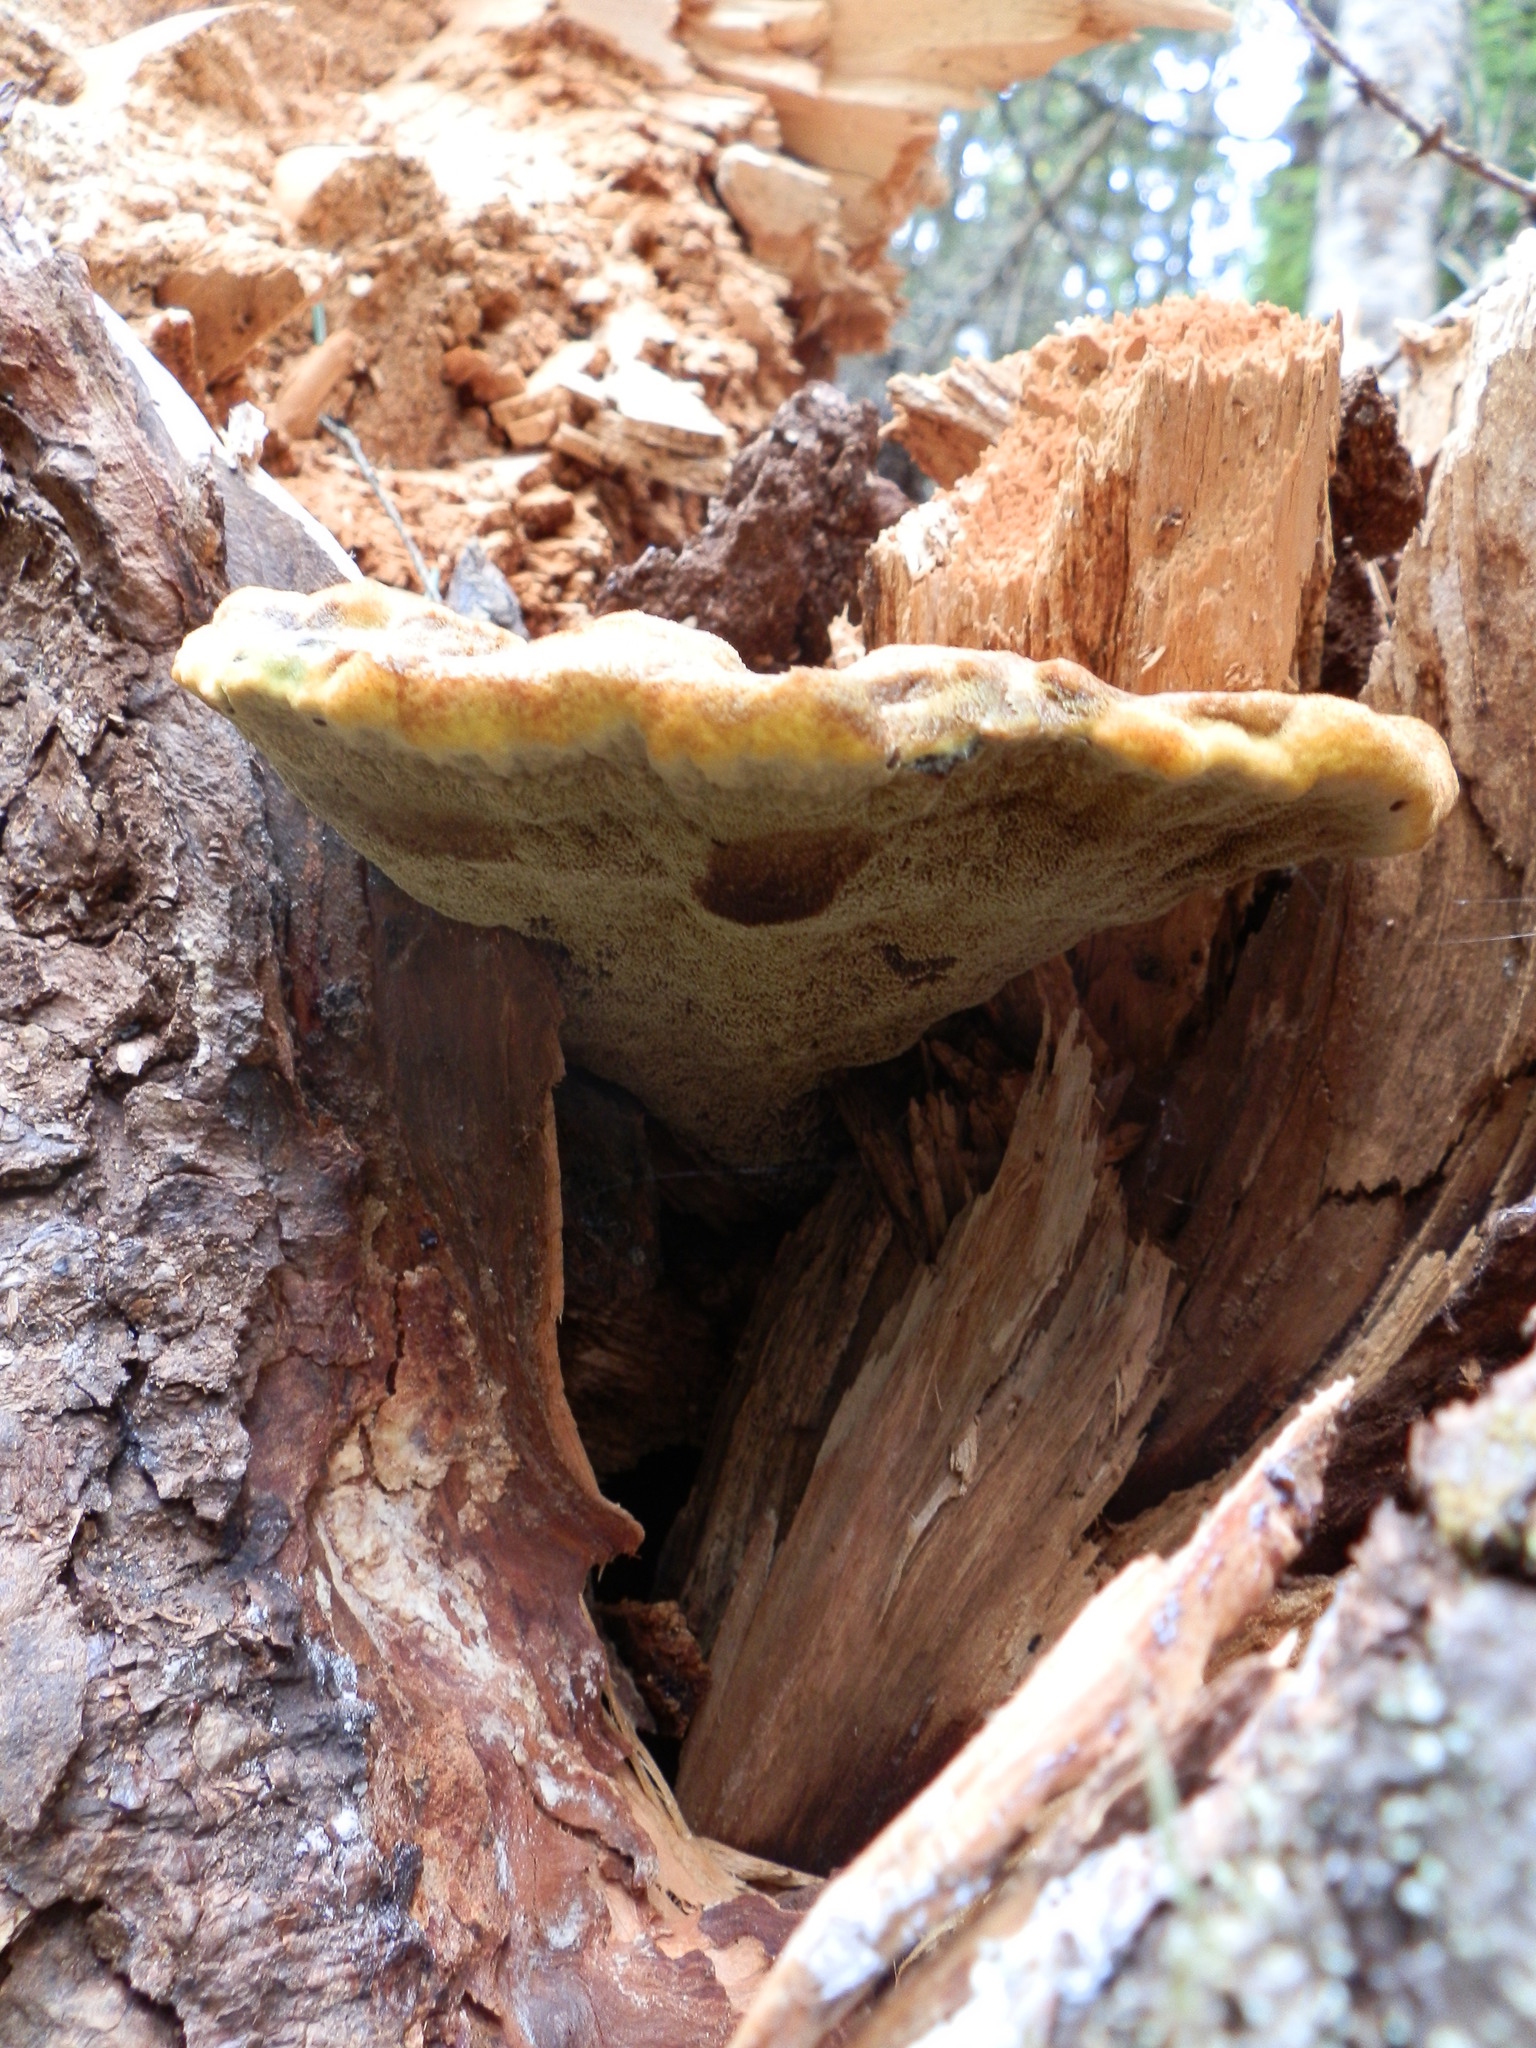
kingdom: Fungi
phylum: Basidiomycota
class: Agaricomycetes
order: Polyporales
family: Laetiporaceae
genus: Phaeolus
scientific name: Phaeolus schweinitzii
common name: Dyer's mazegill
